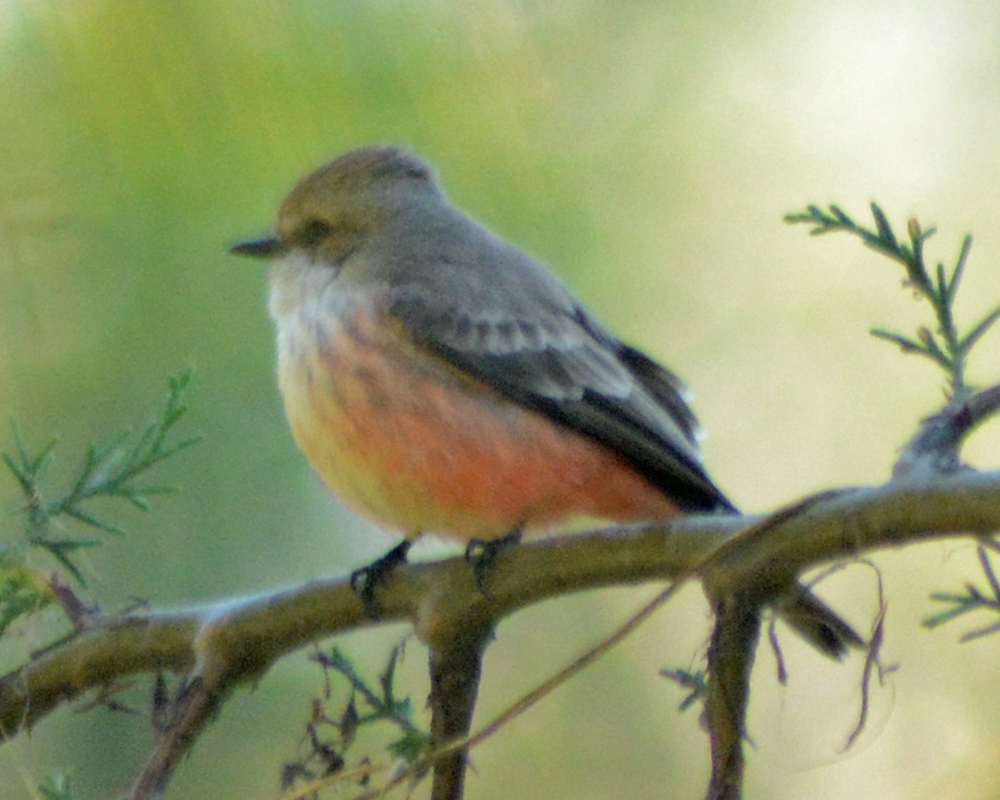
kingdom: Animalia
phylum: Chordata
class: Aves
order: Passeriformes
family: Tyrannidae
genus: Pyrocephalus
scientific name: Pyrocephalus rubinus
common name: Vermilion flycatcher
